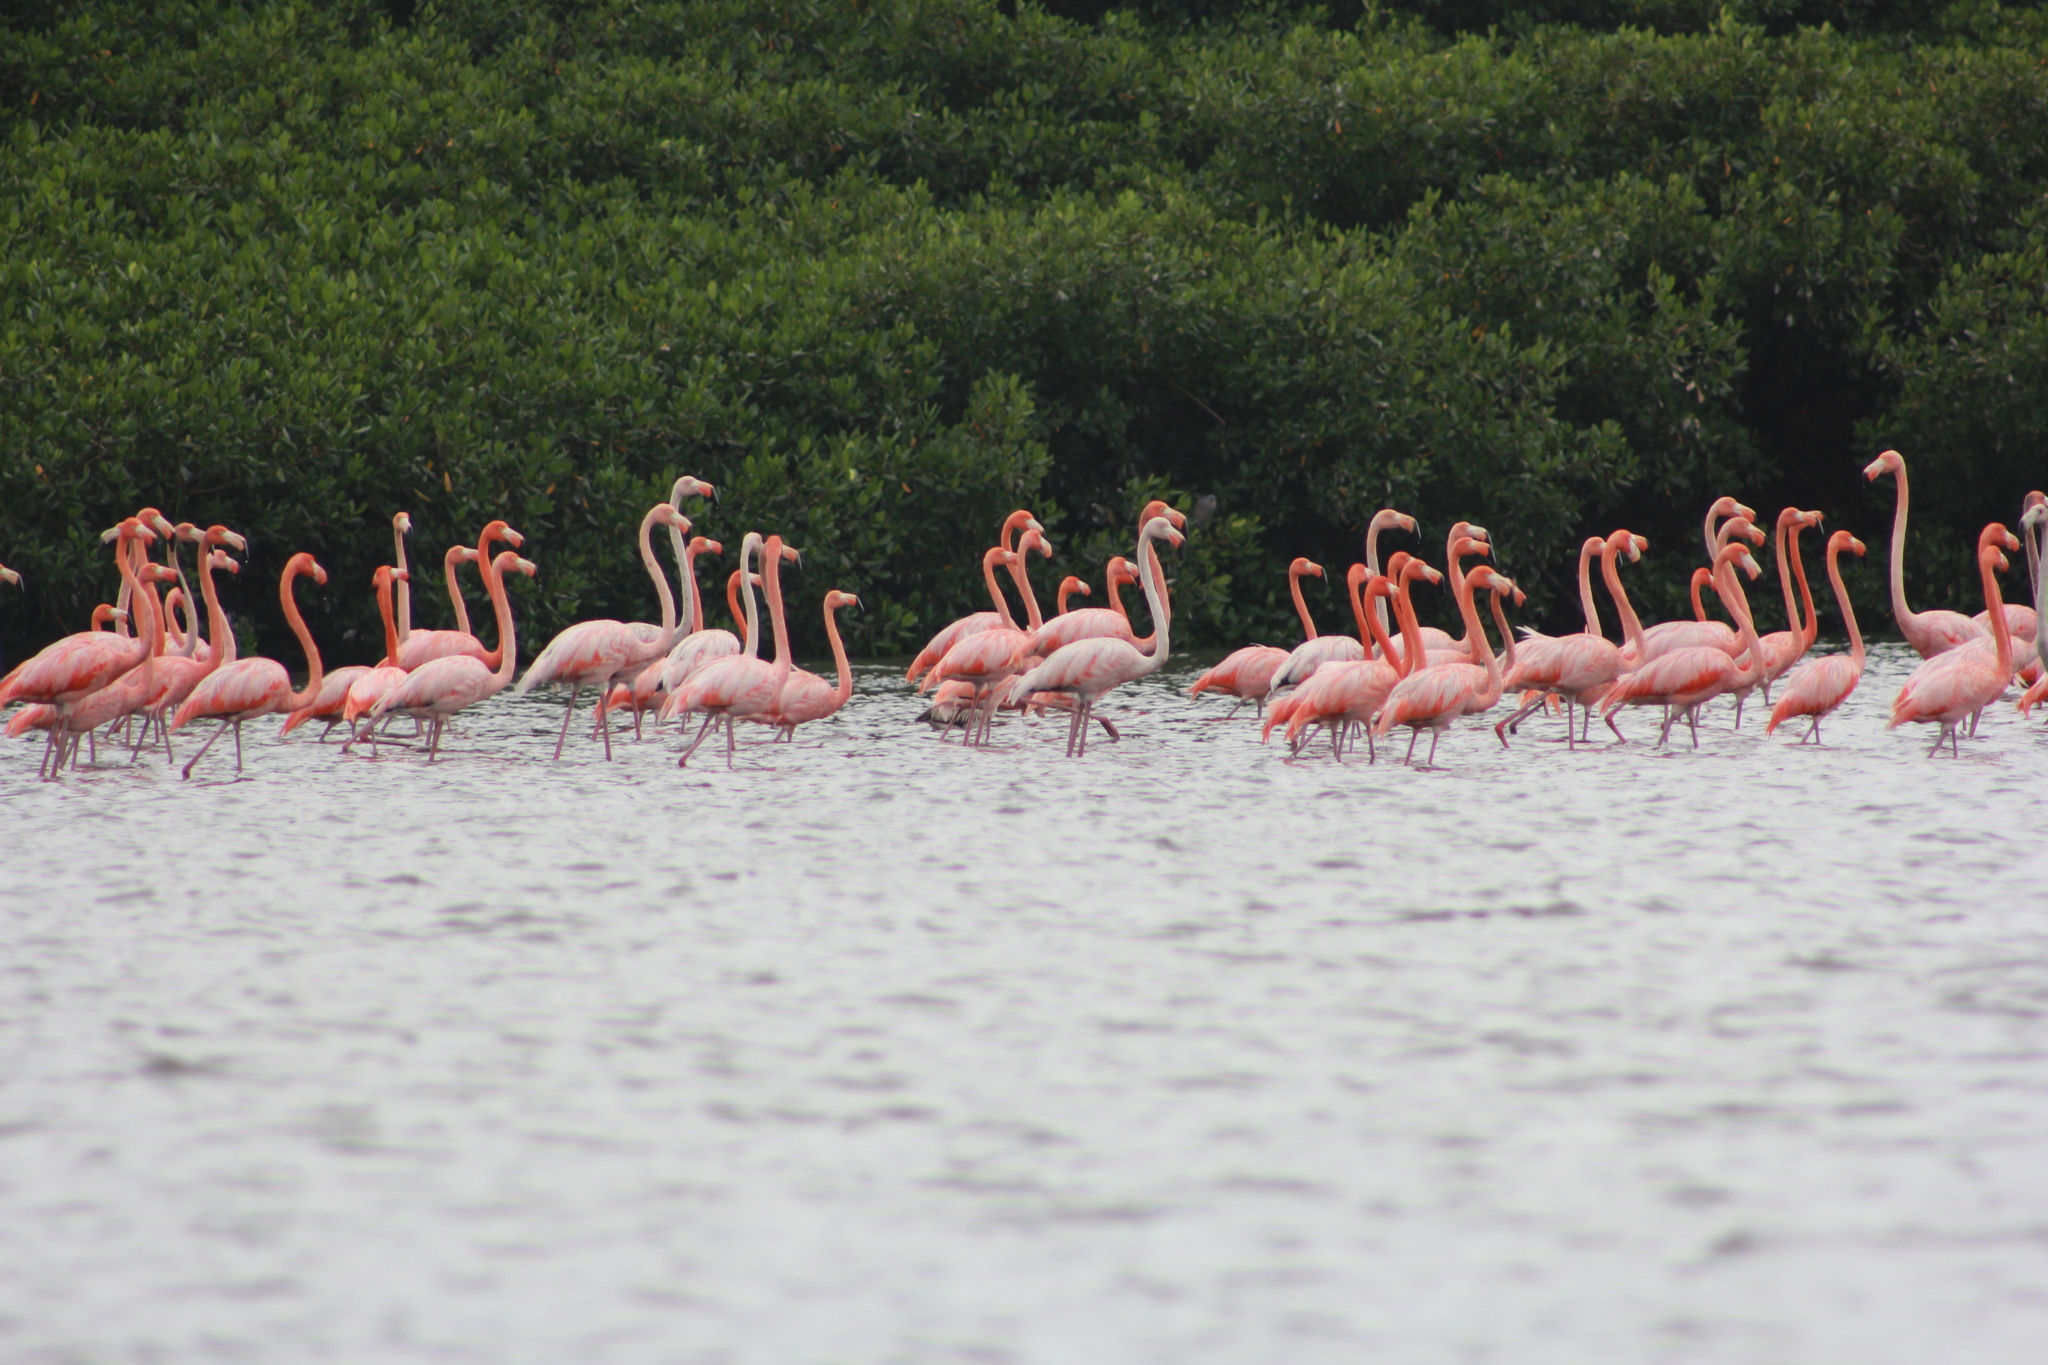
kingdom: Animalia
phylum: Chordata
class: Aves
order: Phoenicopteriformes
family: Phoenicopteridae
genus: Phoenicopterus
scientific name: Phoenicopterus ruber
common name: American flamingo
